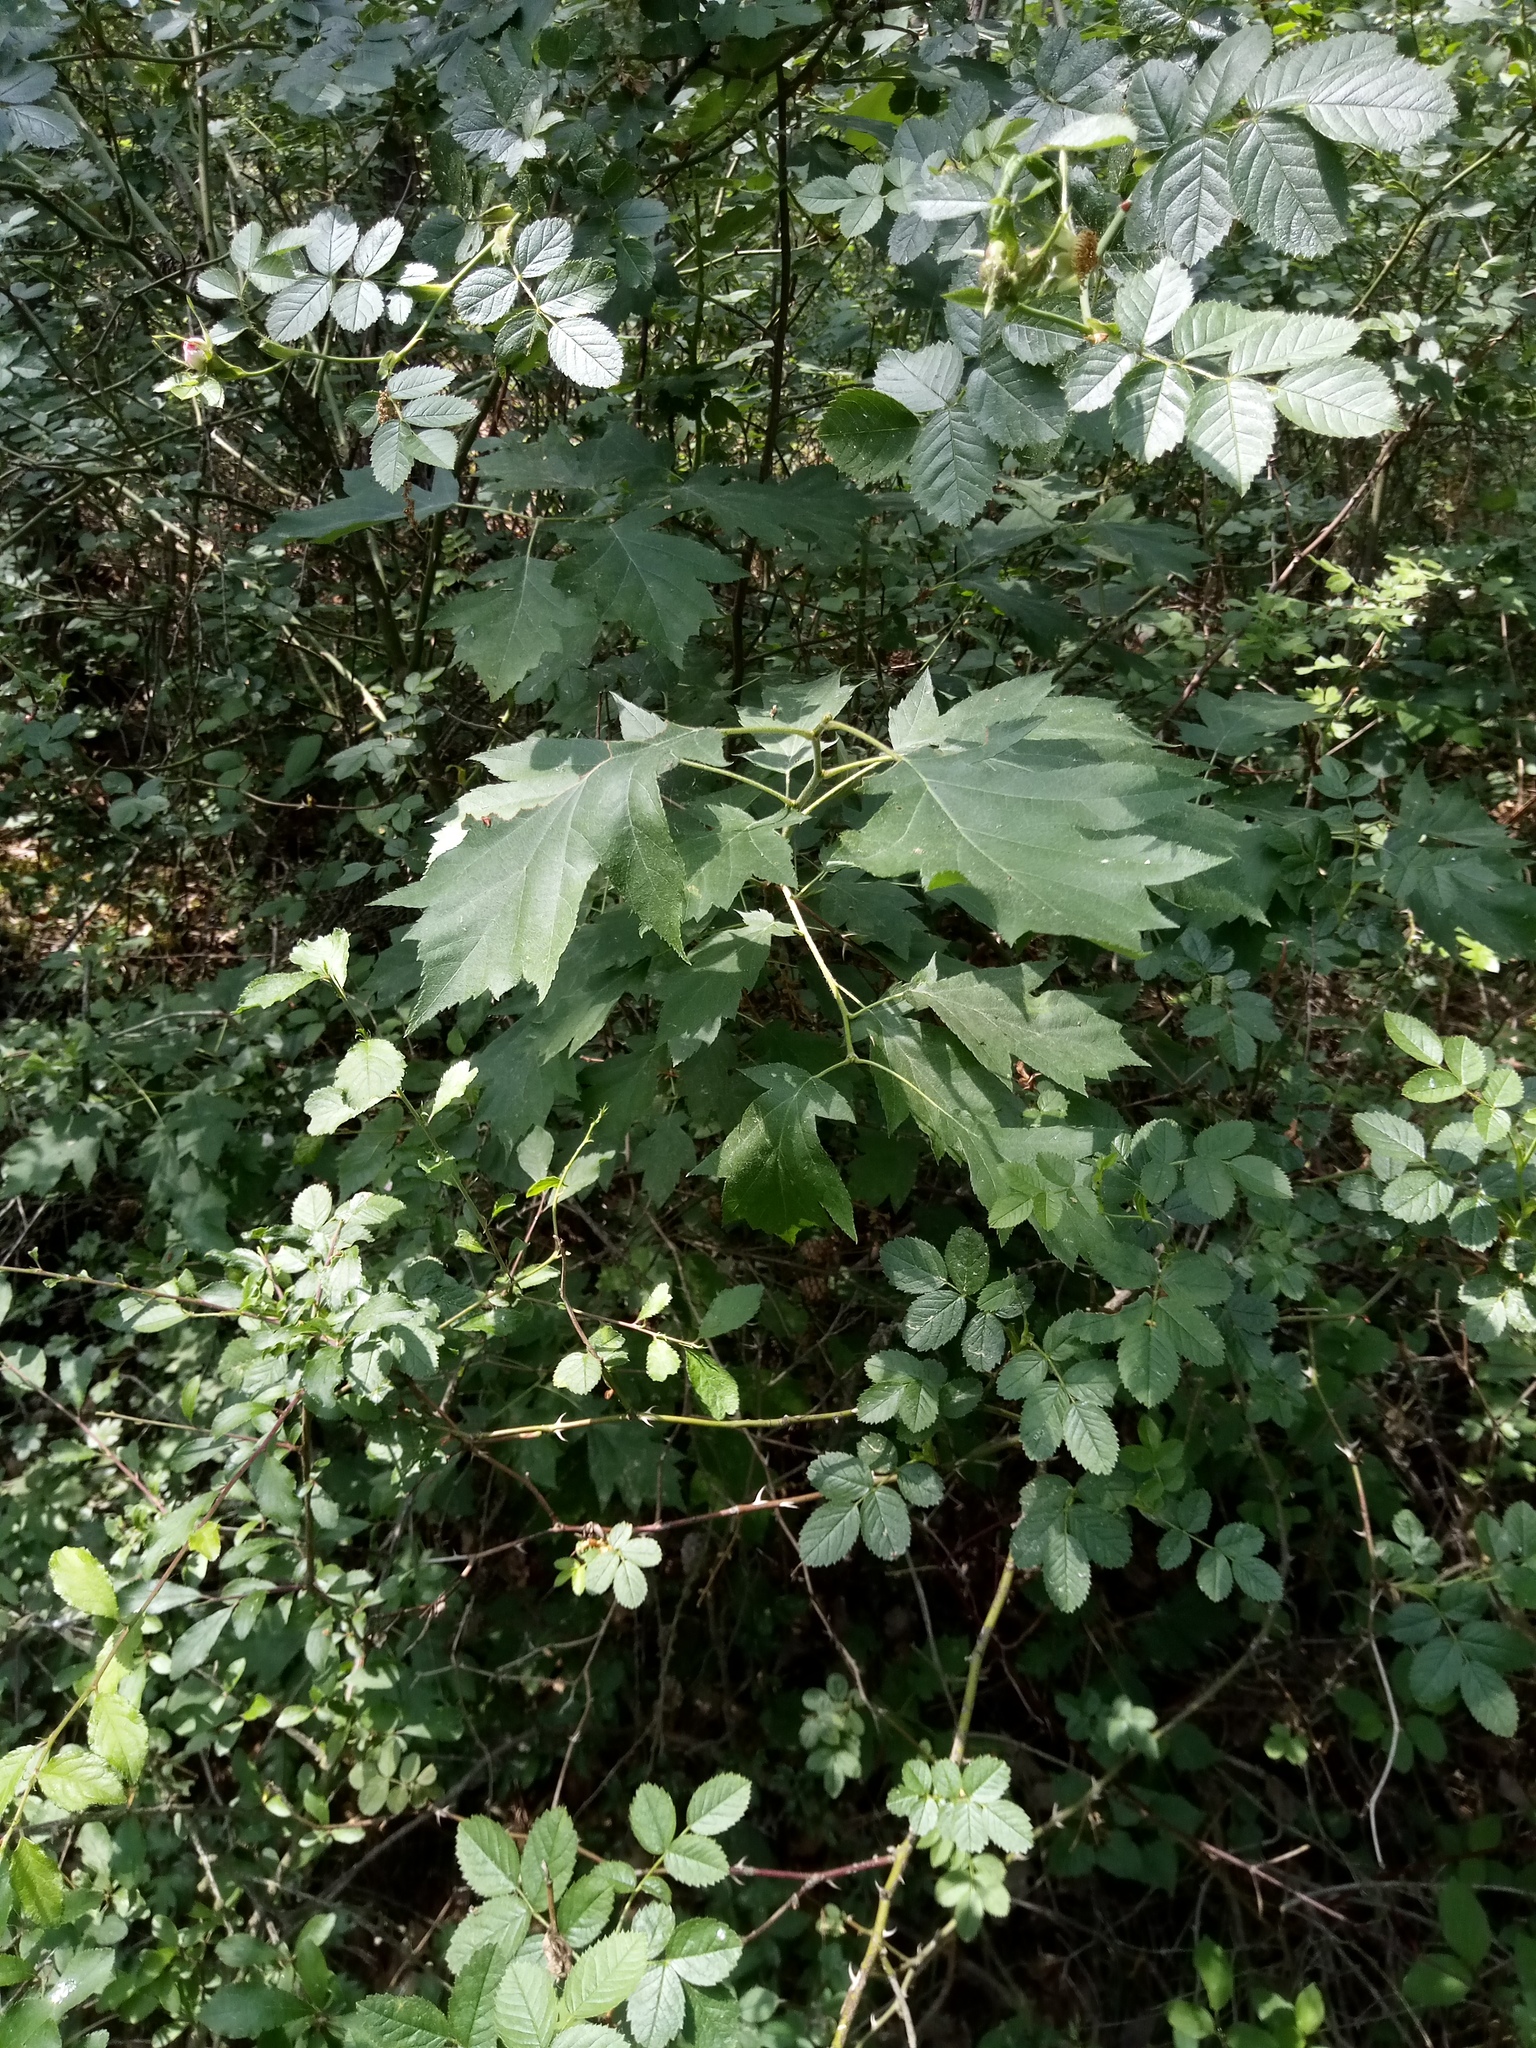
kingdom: Plantae
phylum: Tracheophyta
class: Magnoliopsida
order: Rosales
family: Rosaceae
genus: Torminalis
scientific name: Torminalis glaberrima
